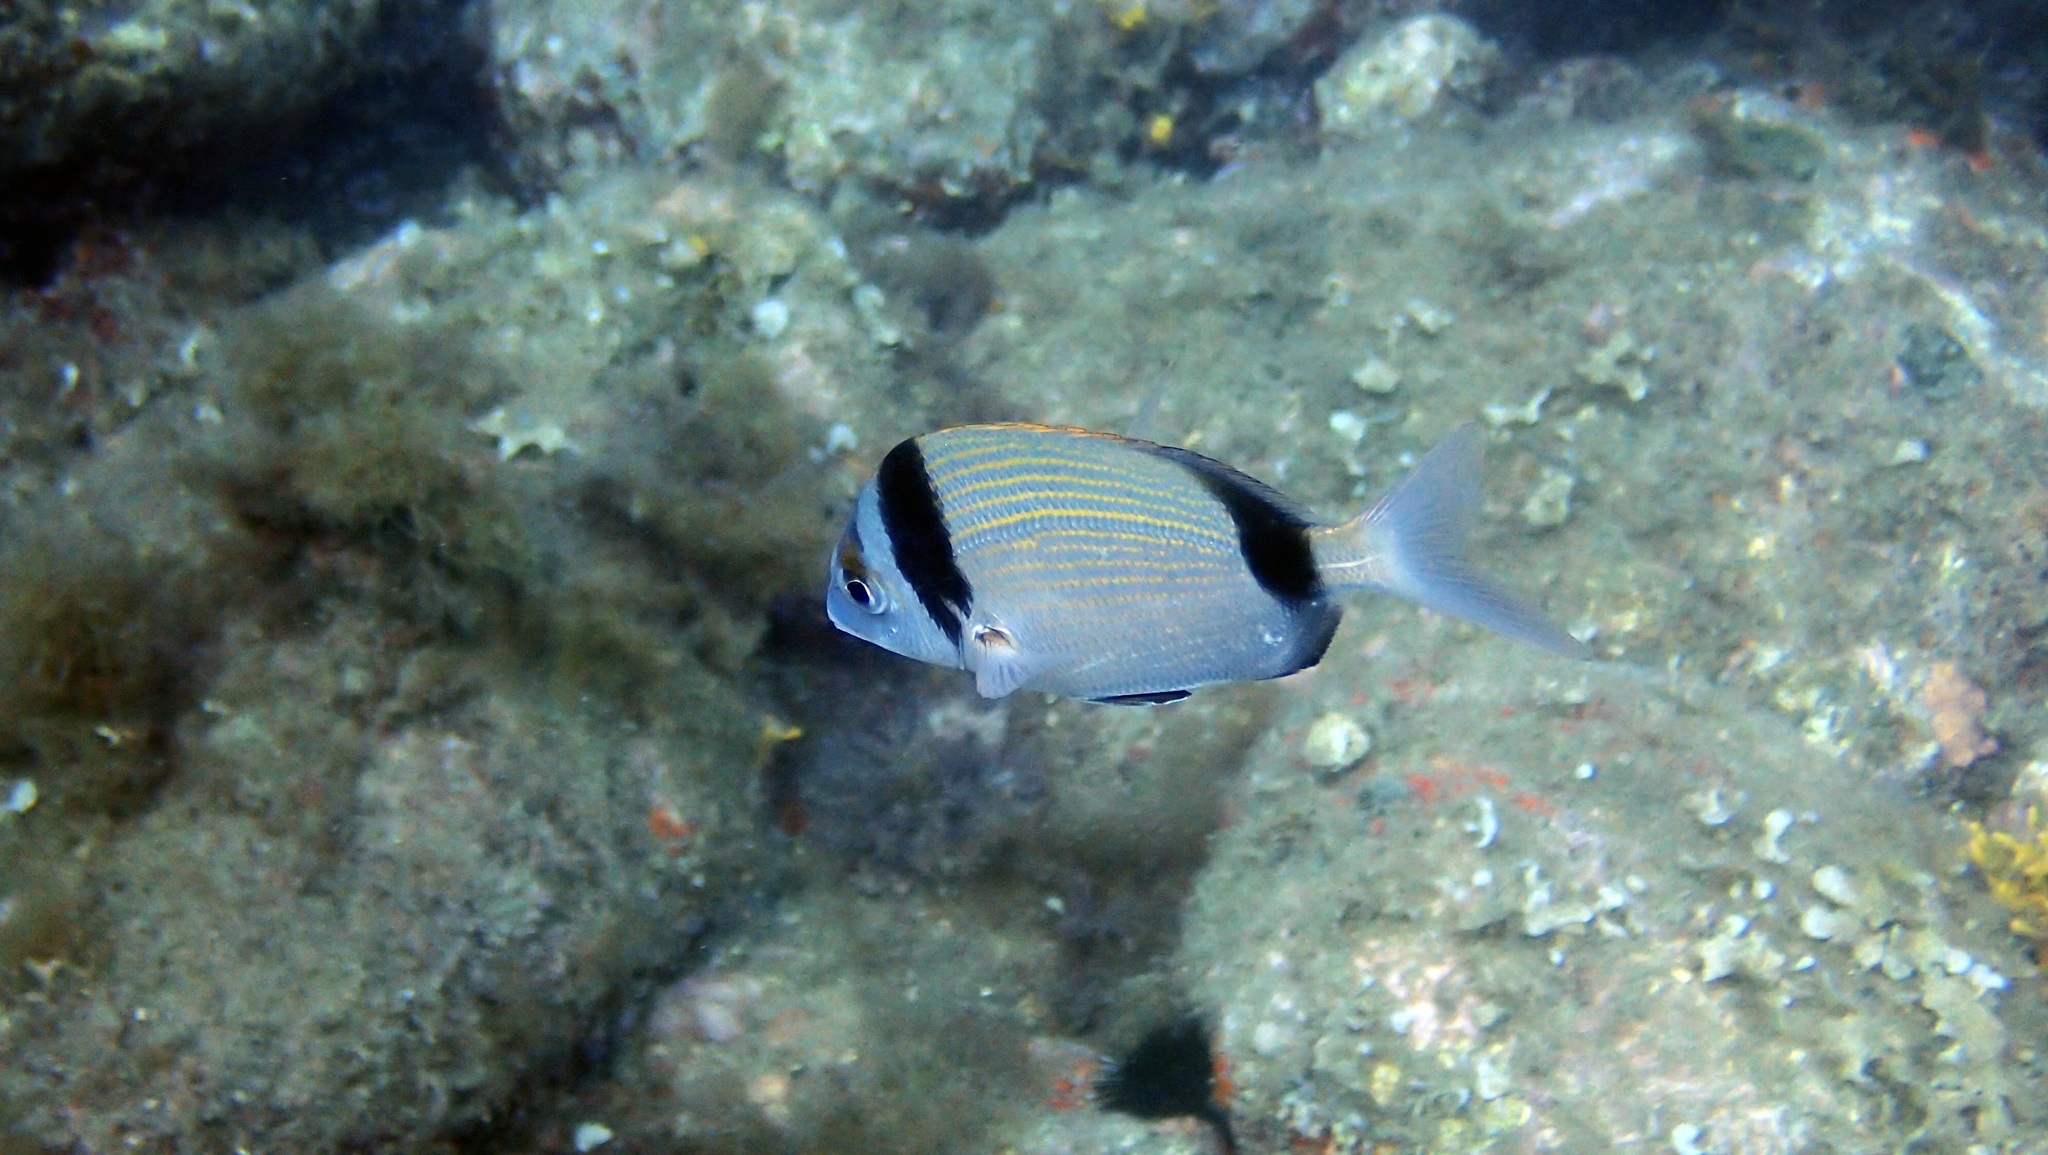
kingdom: Animalia
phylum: Chordata
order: Perciformes
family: Sparidae
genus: Diplodus
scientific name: Diplodus vulgaris
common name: Common two-banded seabream
